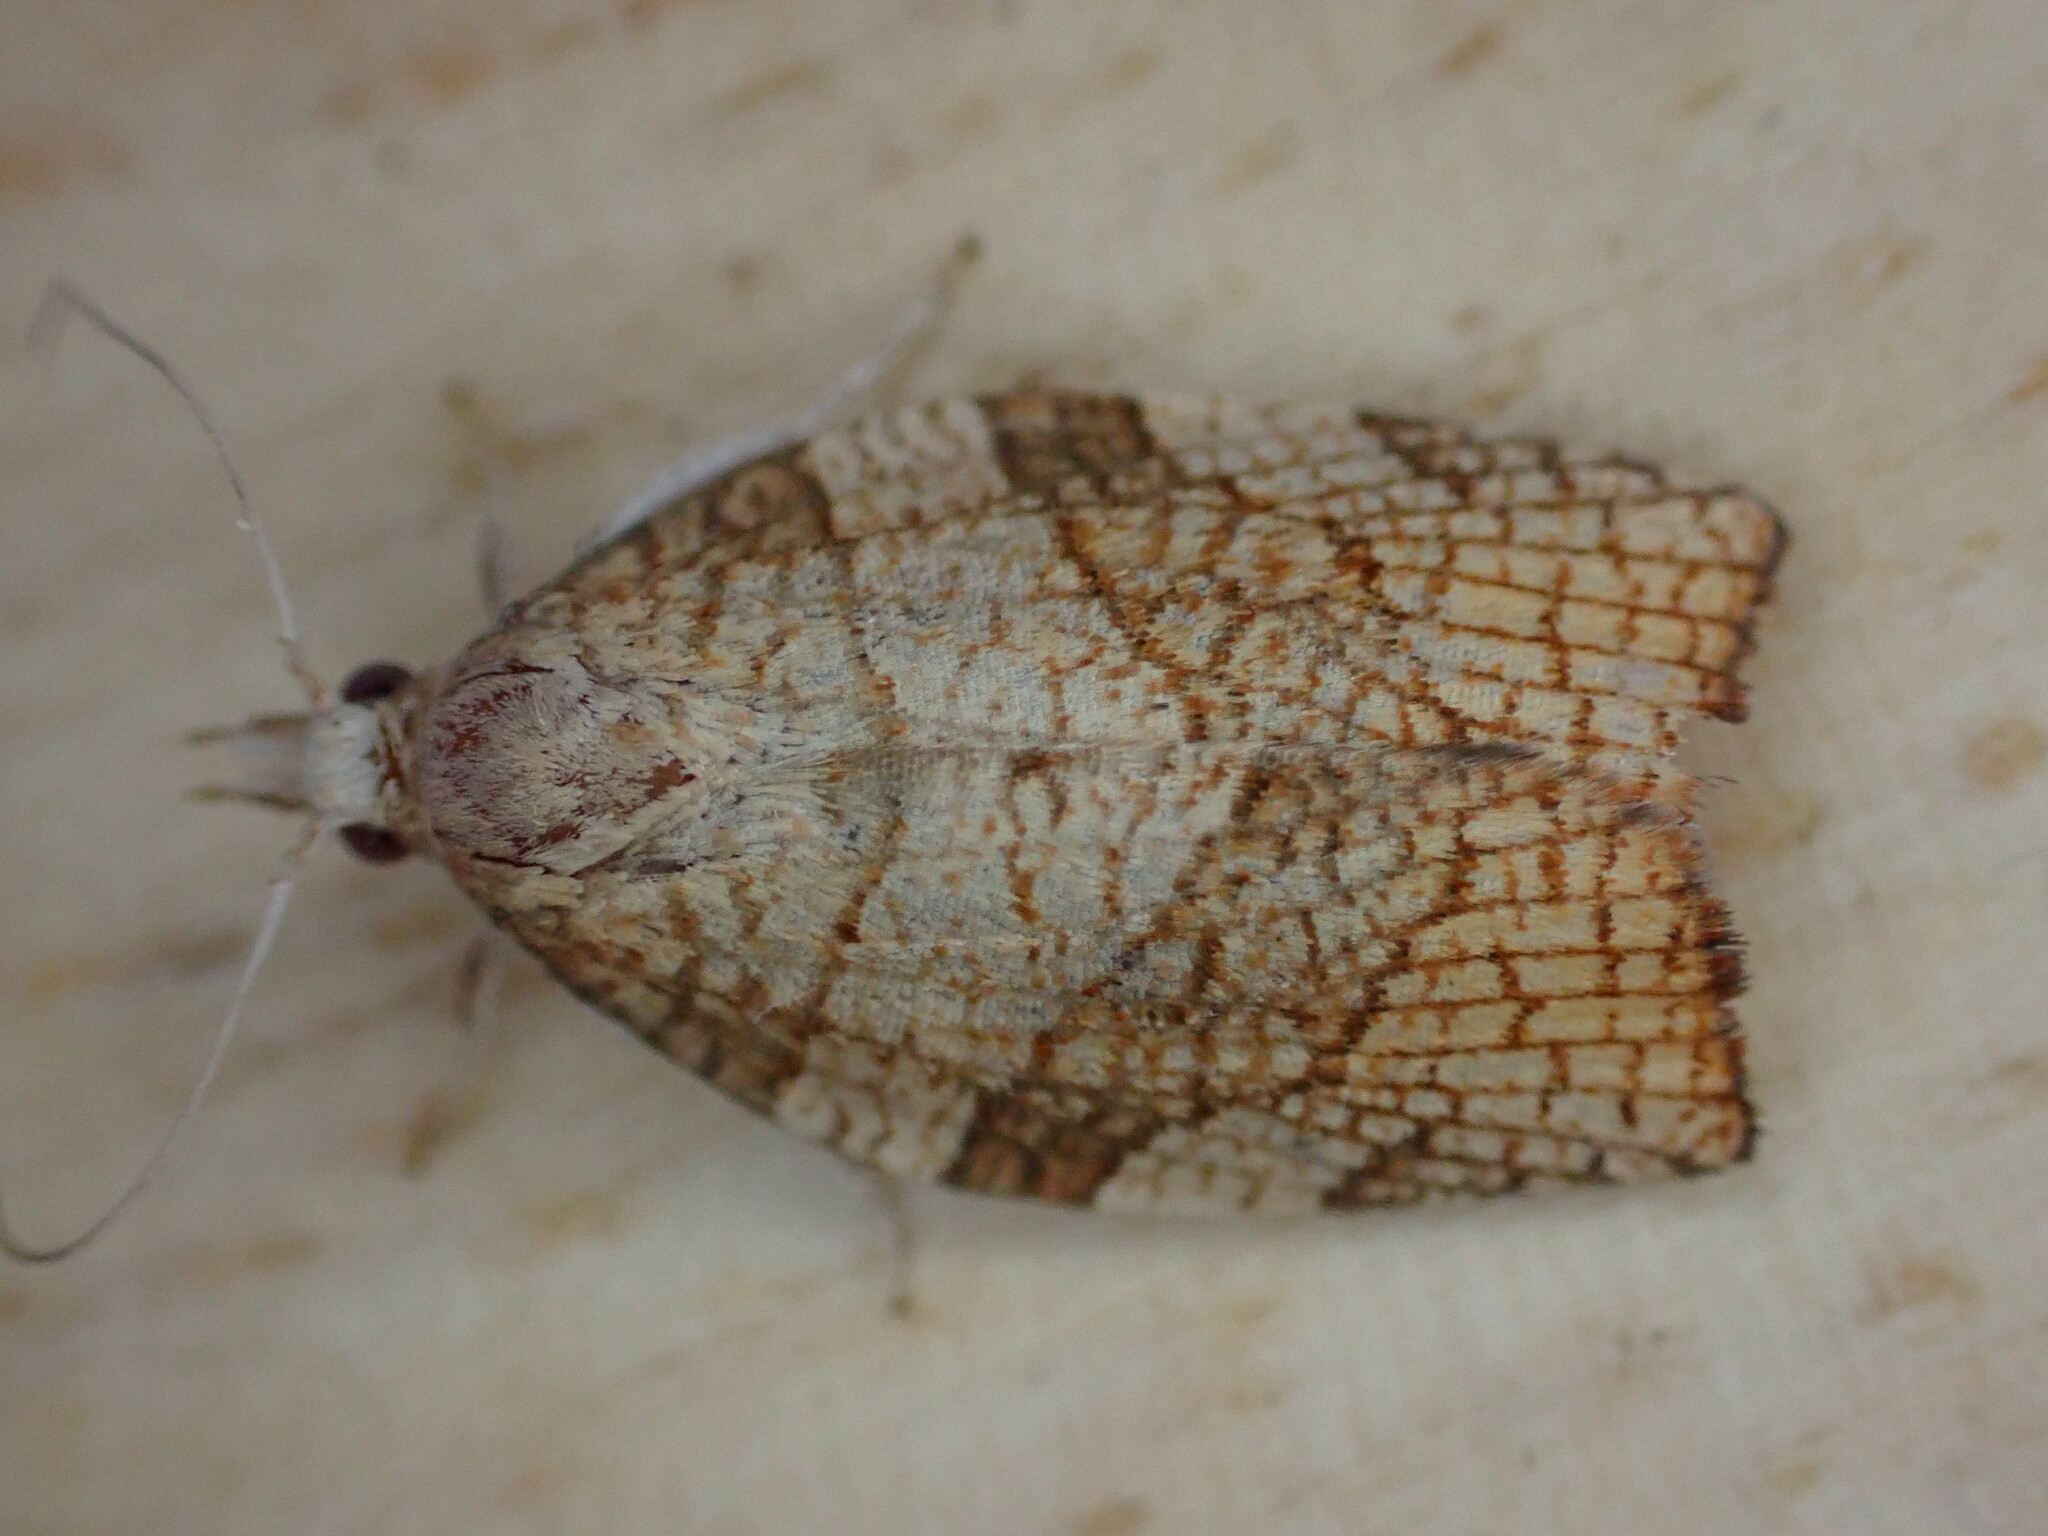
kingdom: Animalia
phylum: Arthropoda
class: Insecta
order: Lepidoptera
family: Tortricidae
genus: Pandemis
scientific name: Pandemis corylana
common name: Chequered fruit-tree tortrix
